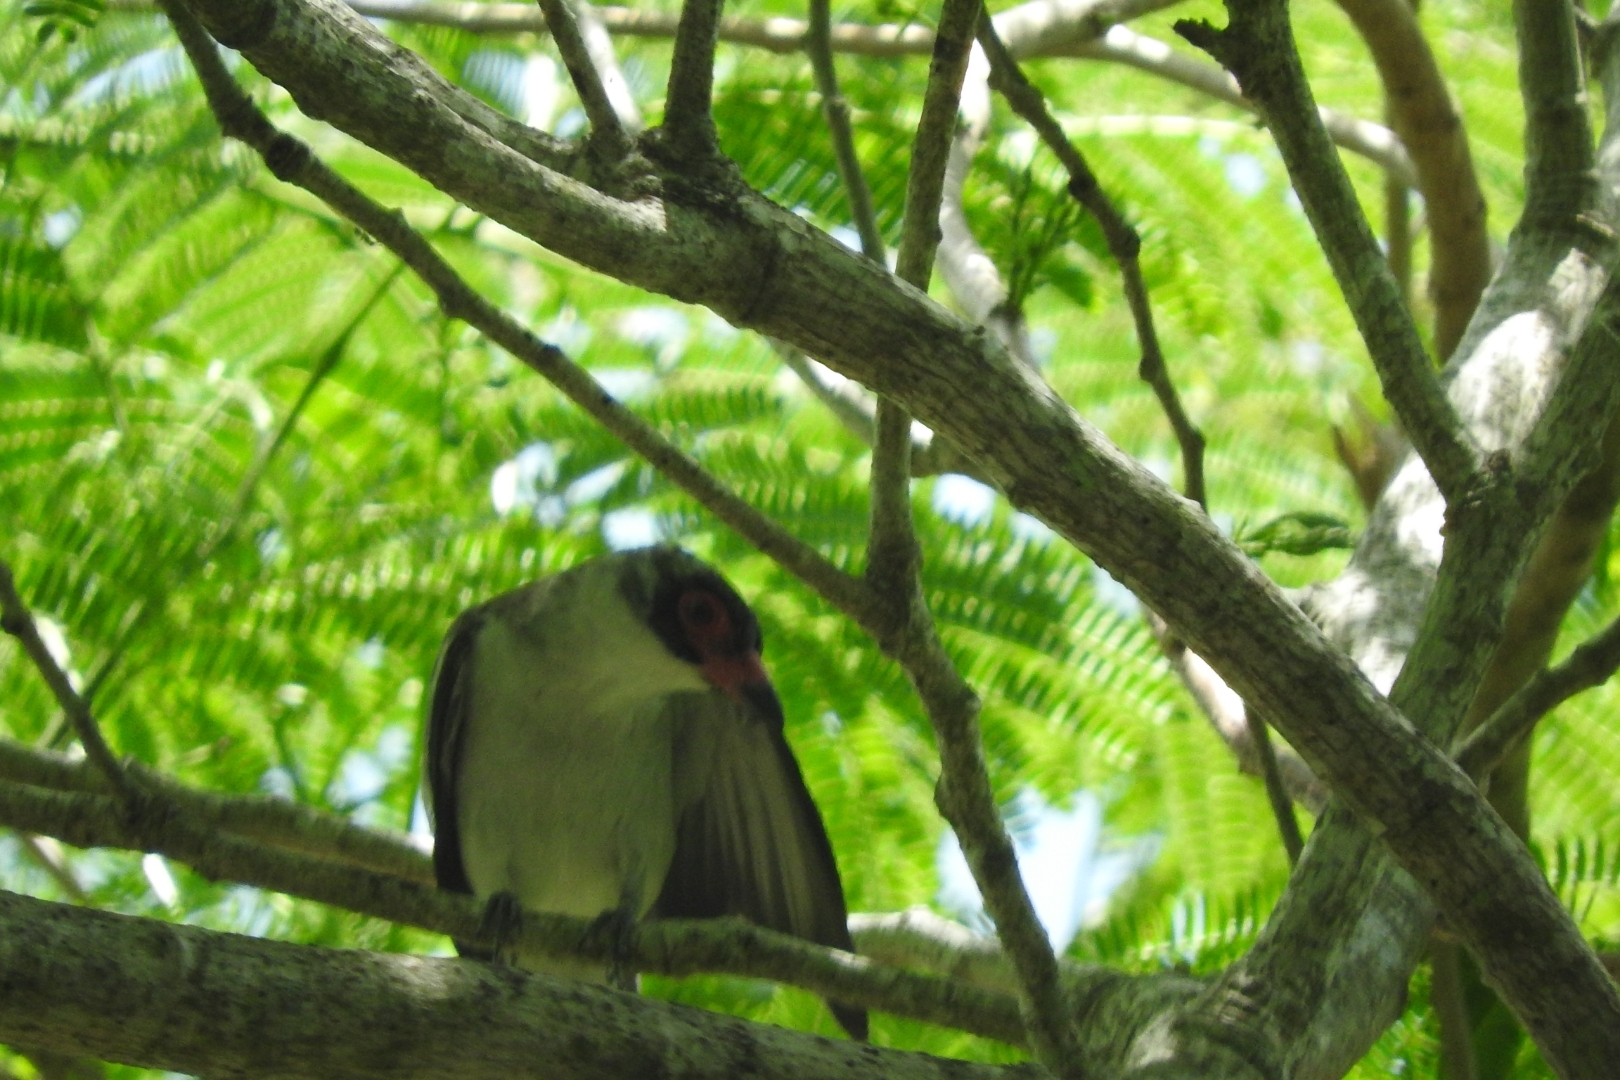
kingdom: Animalia
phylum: Chordata
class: Aves
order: Passeriformes
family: Cotingidae
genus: Tityra
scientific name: Tityra semifasciata
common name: Masked tityra
